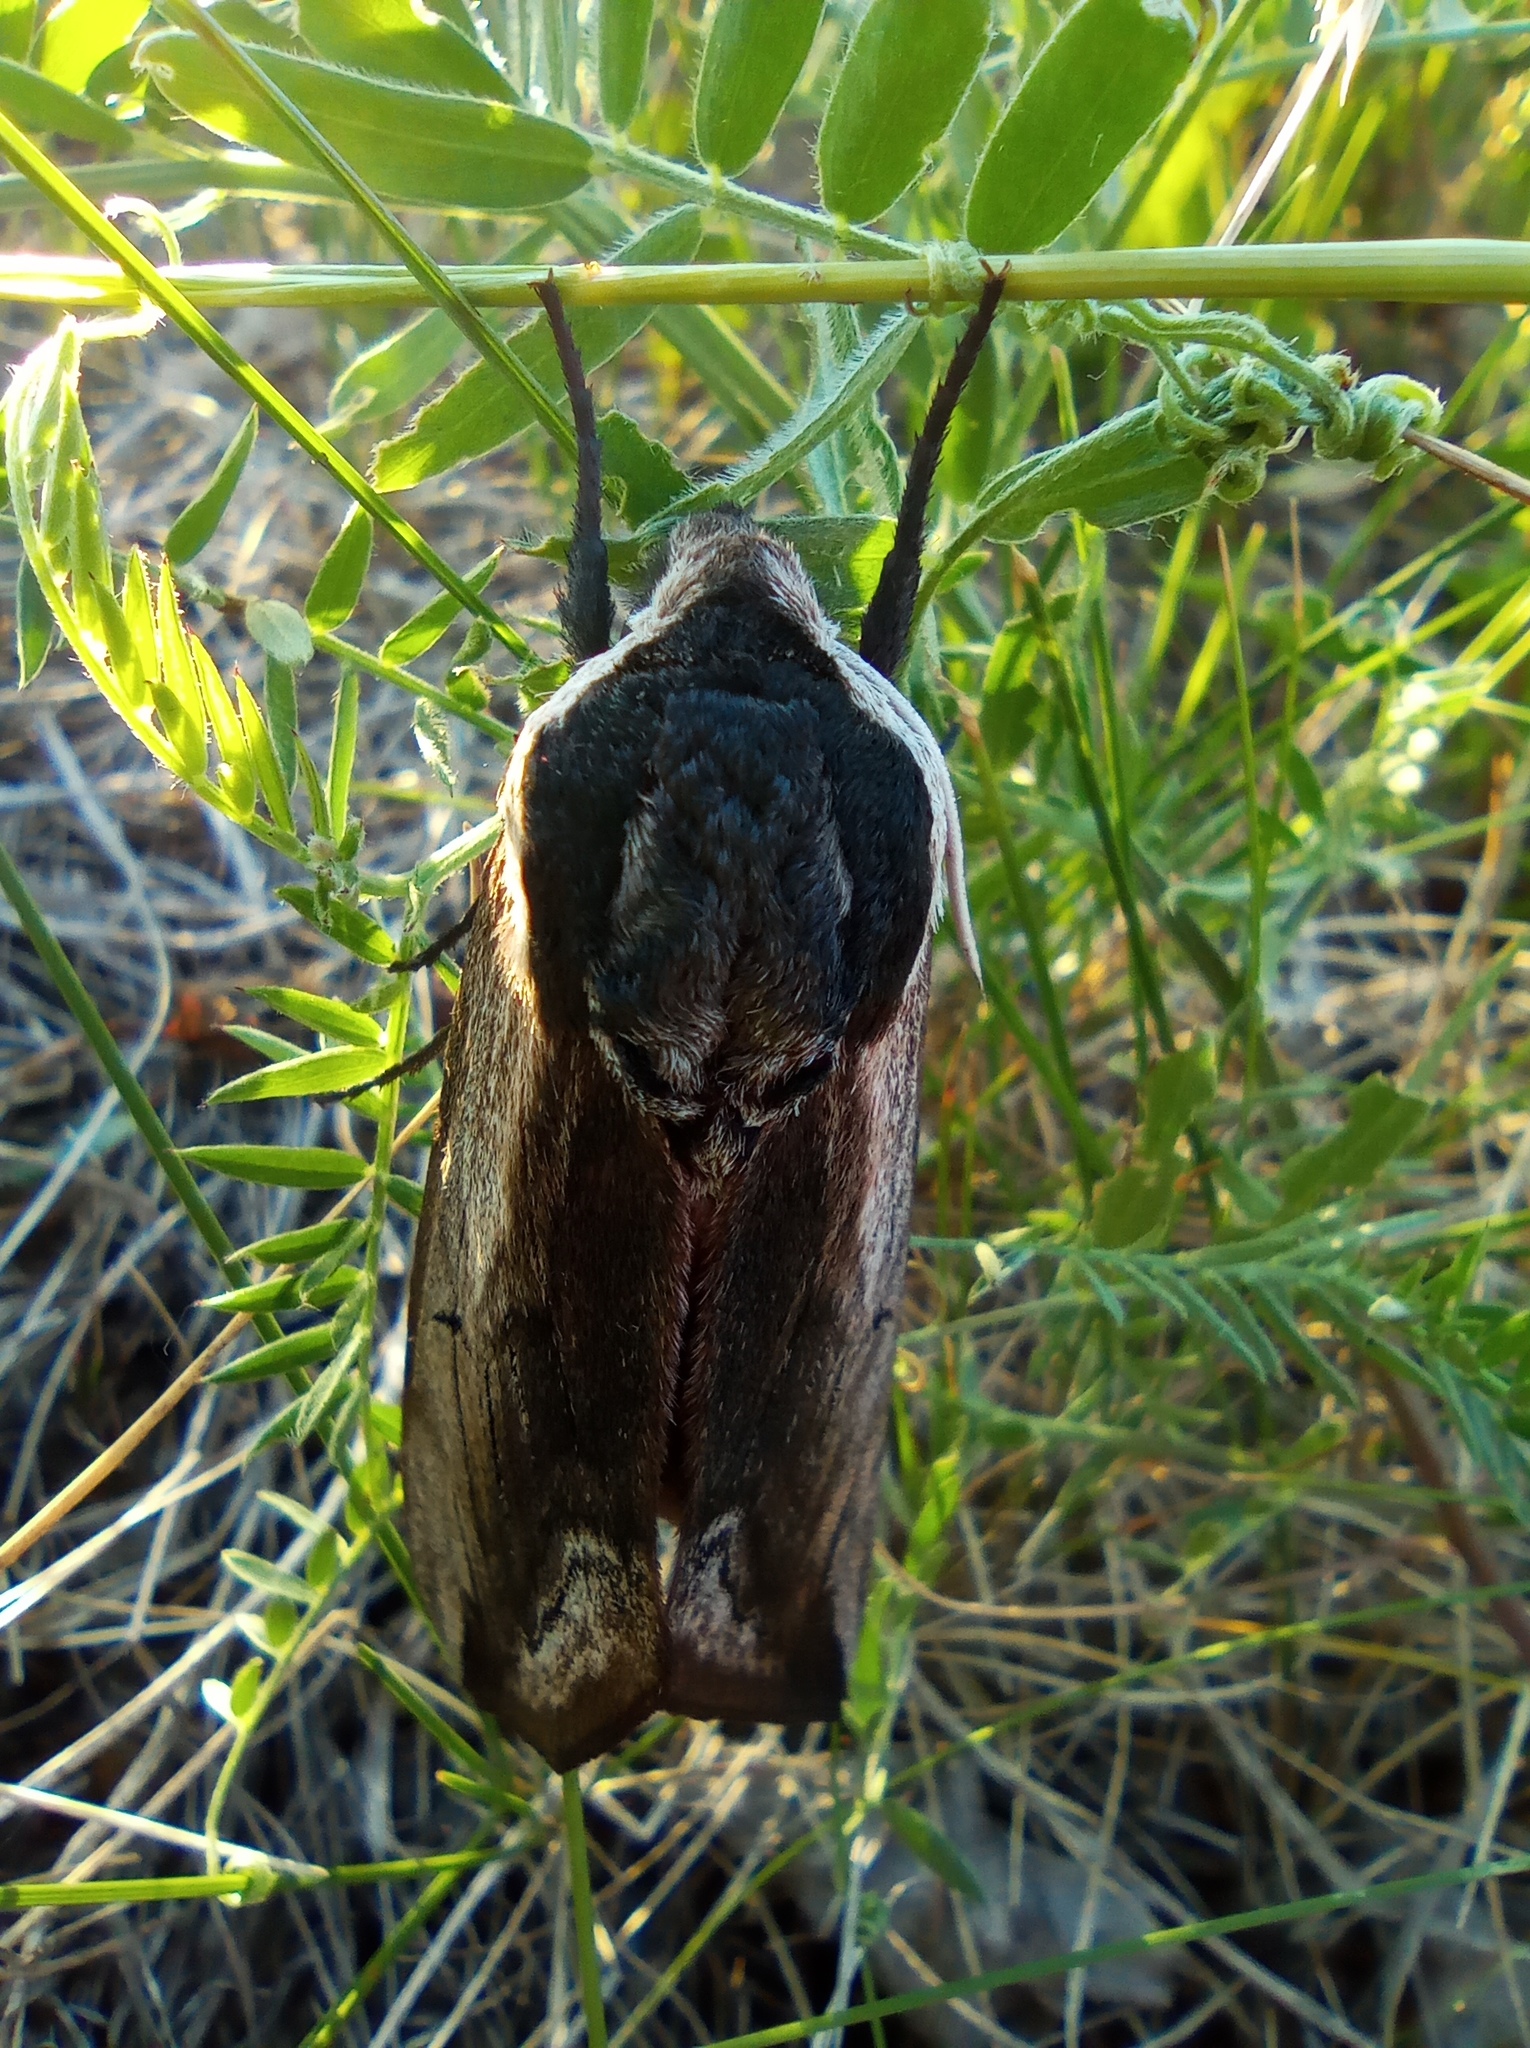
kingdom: Animalia
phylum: Arthropoda
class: Insecta
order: Lepidoptera
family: Sphingidae
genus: Sphinx
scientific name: Sphinx ligustri
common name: Privet hawk-moth
